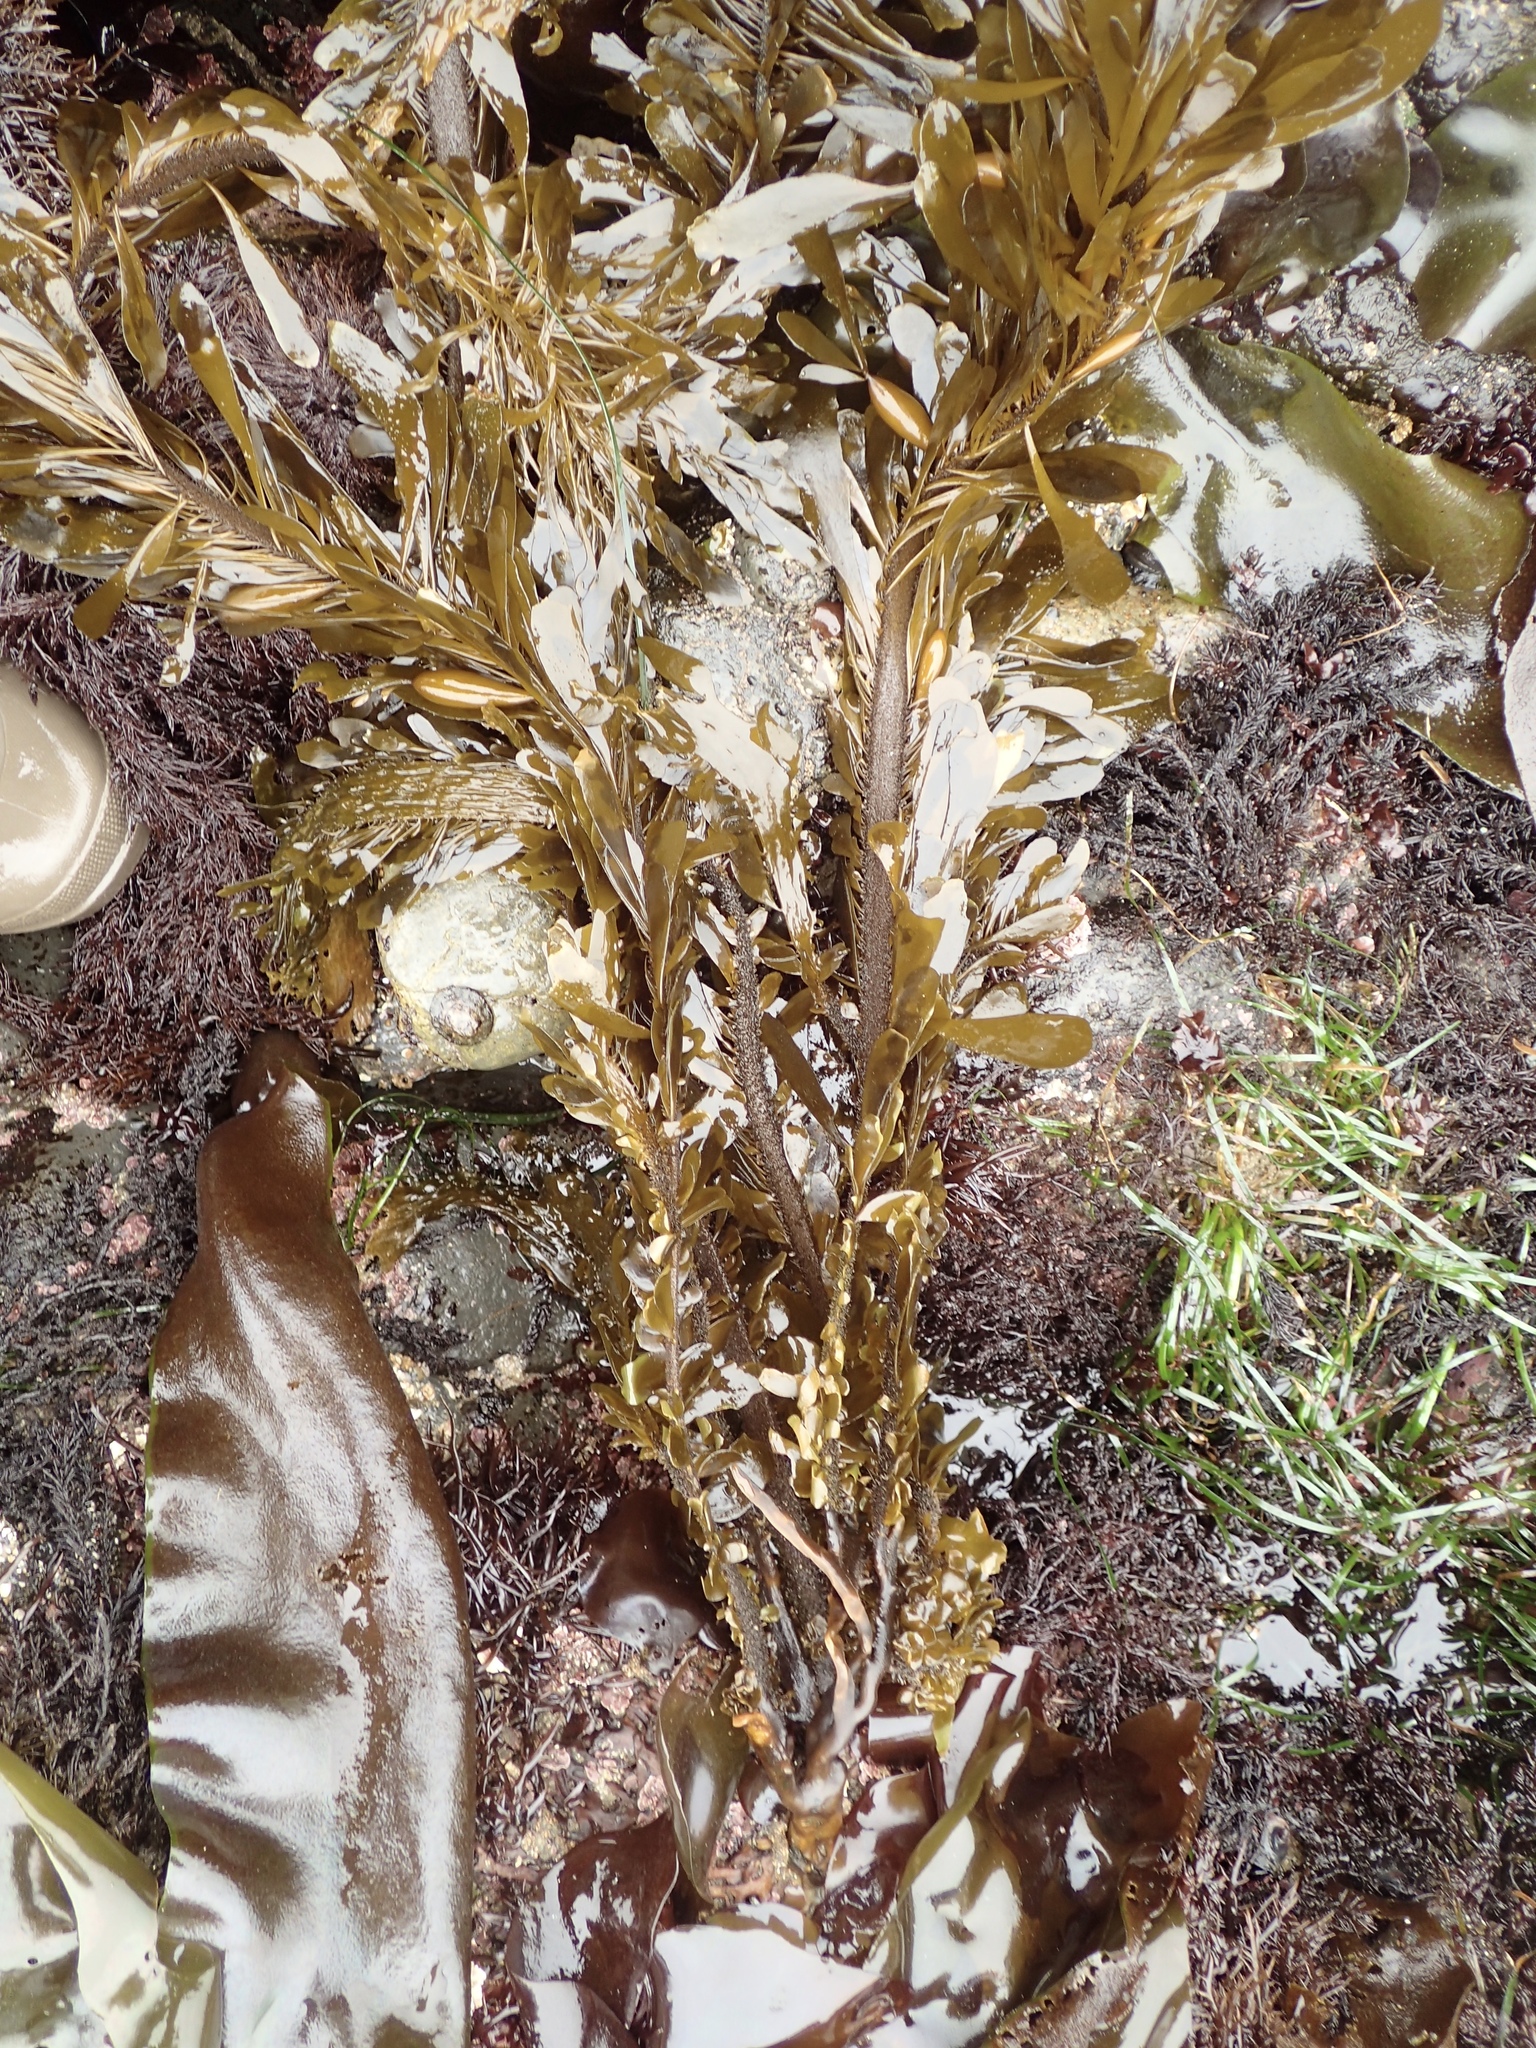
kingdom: Chromista
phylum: Ochrophyta
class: Phaeophyceae
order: Laminariales
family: Lessoniaceae
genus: Egregia
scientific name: Egregia menziesii
